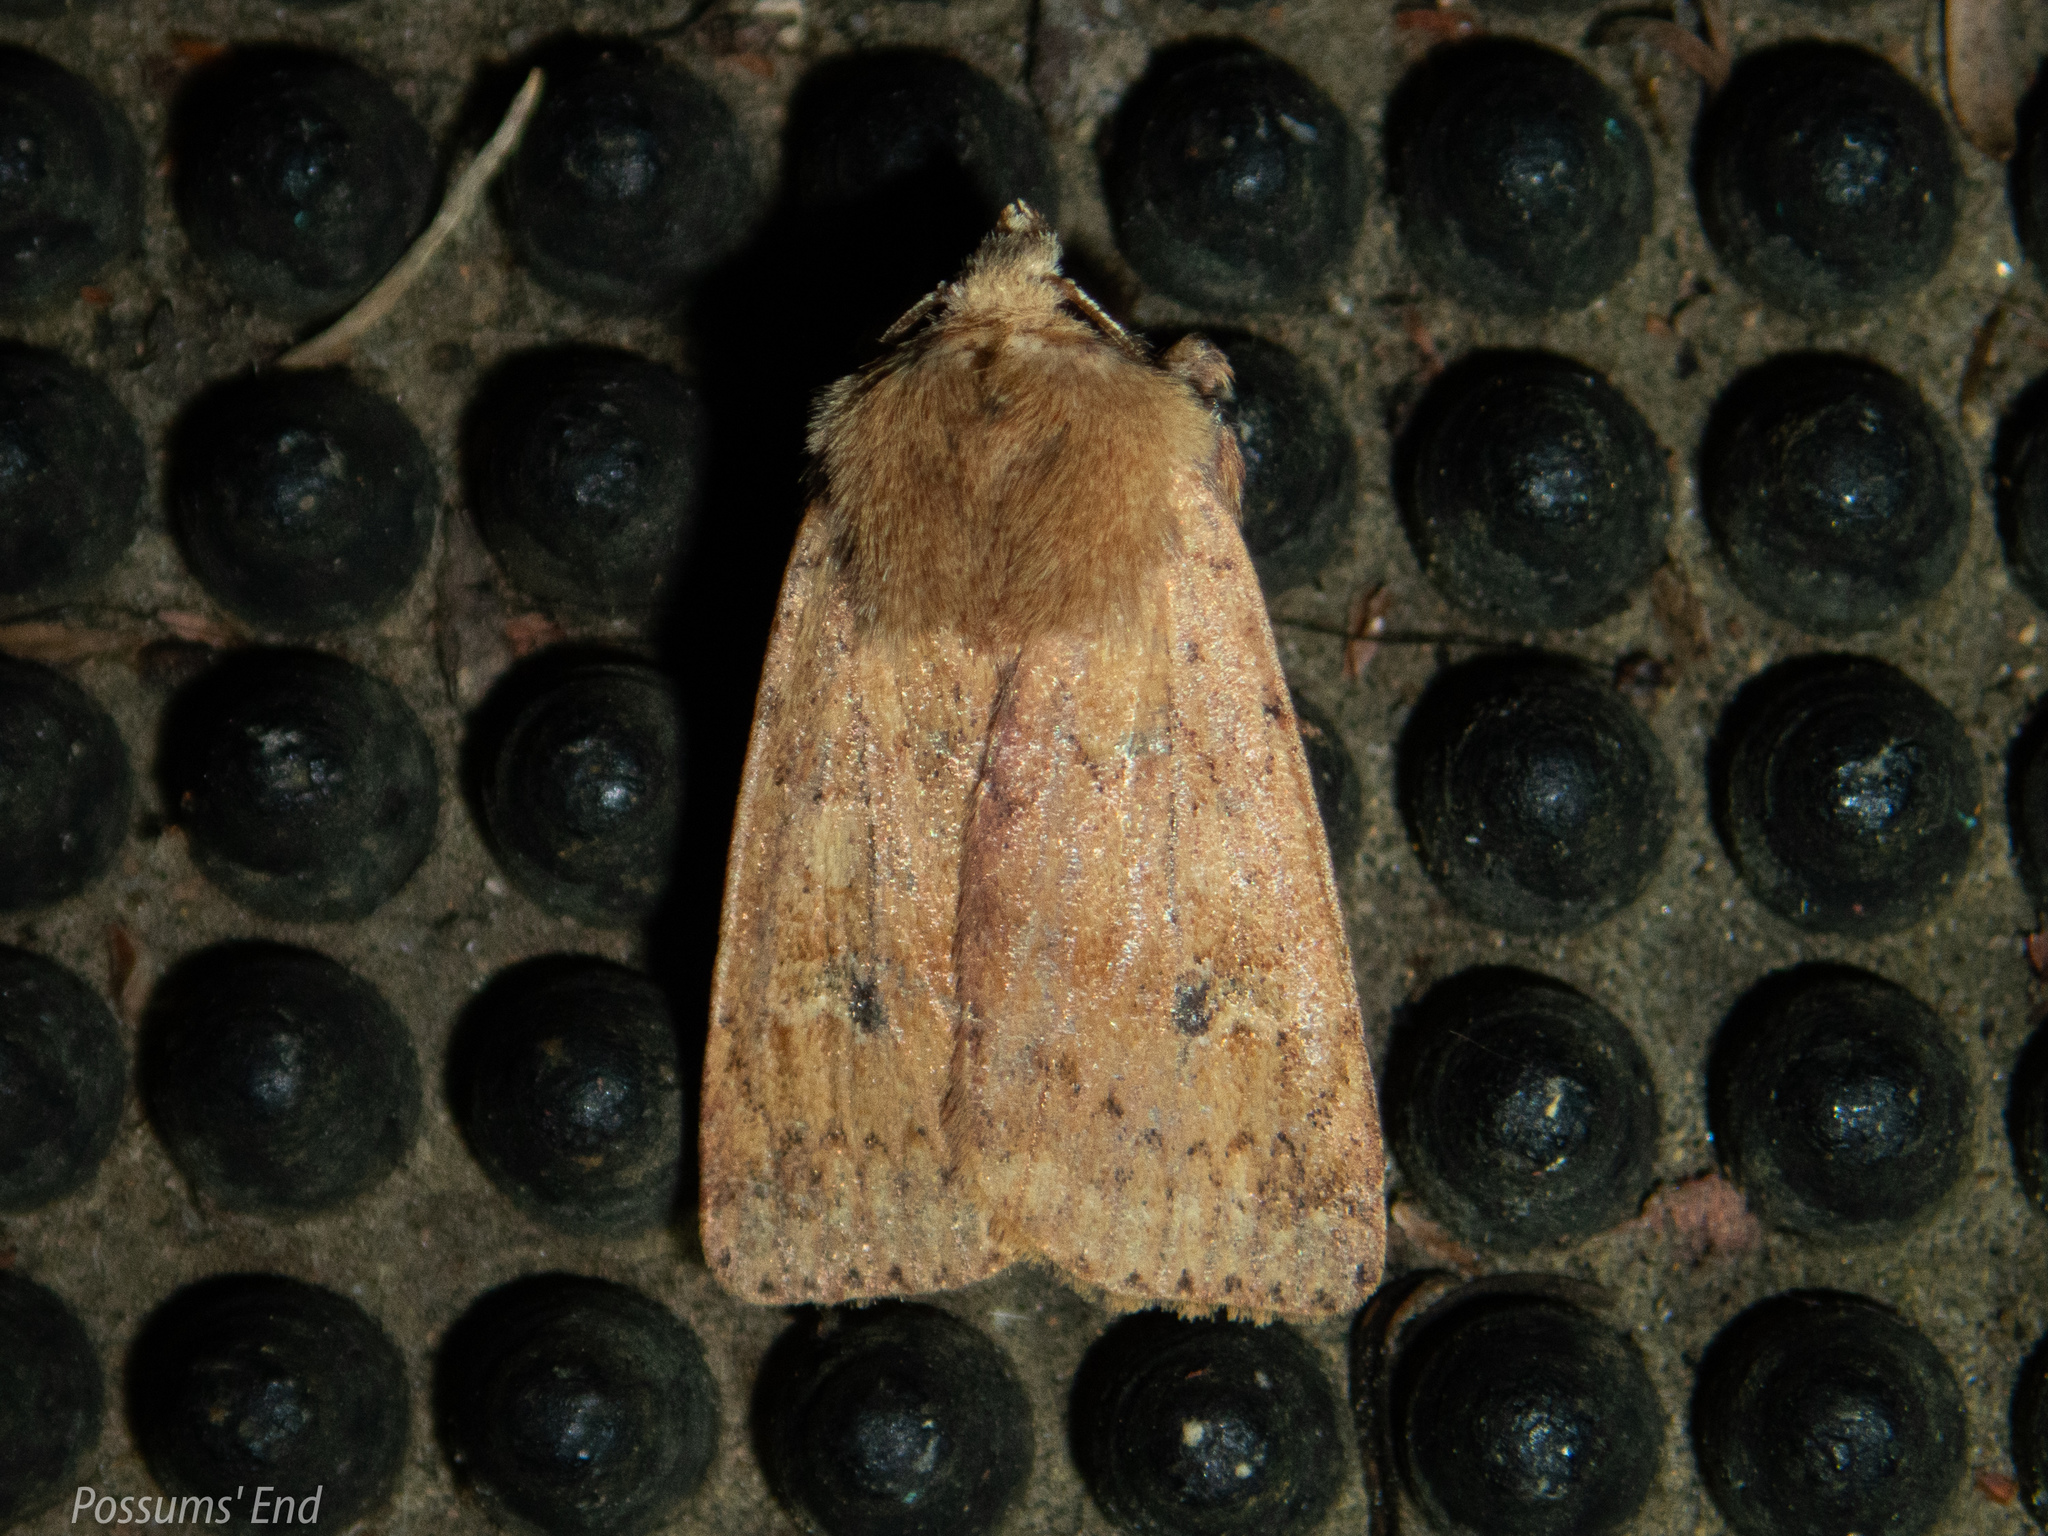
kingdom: Animalia
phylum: Arthropoda
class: Insecta
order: Lepidoptera
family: Noctuidae
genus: Diarsia
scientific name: Diarsia intermixta
